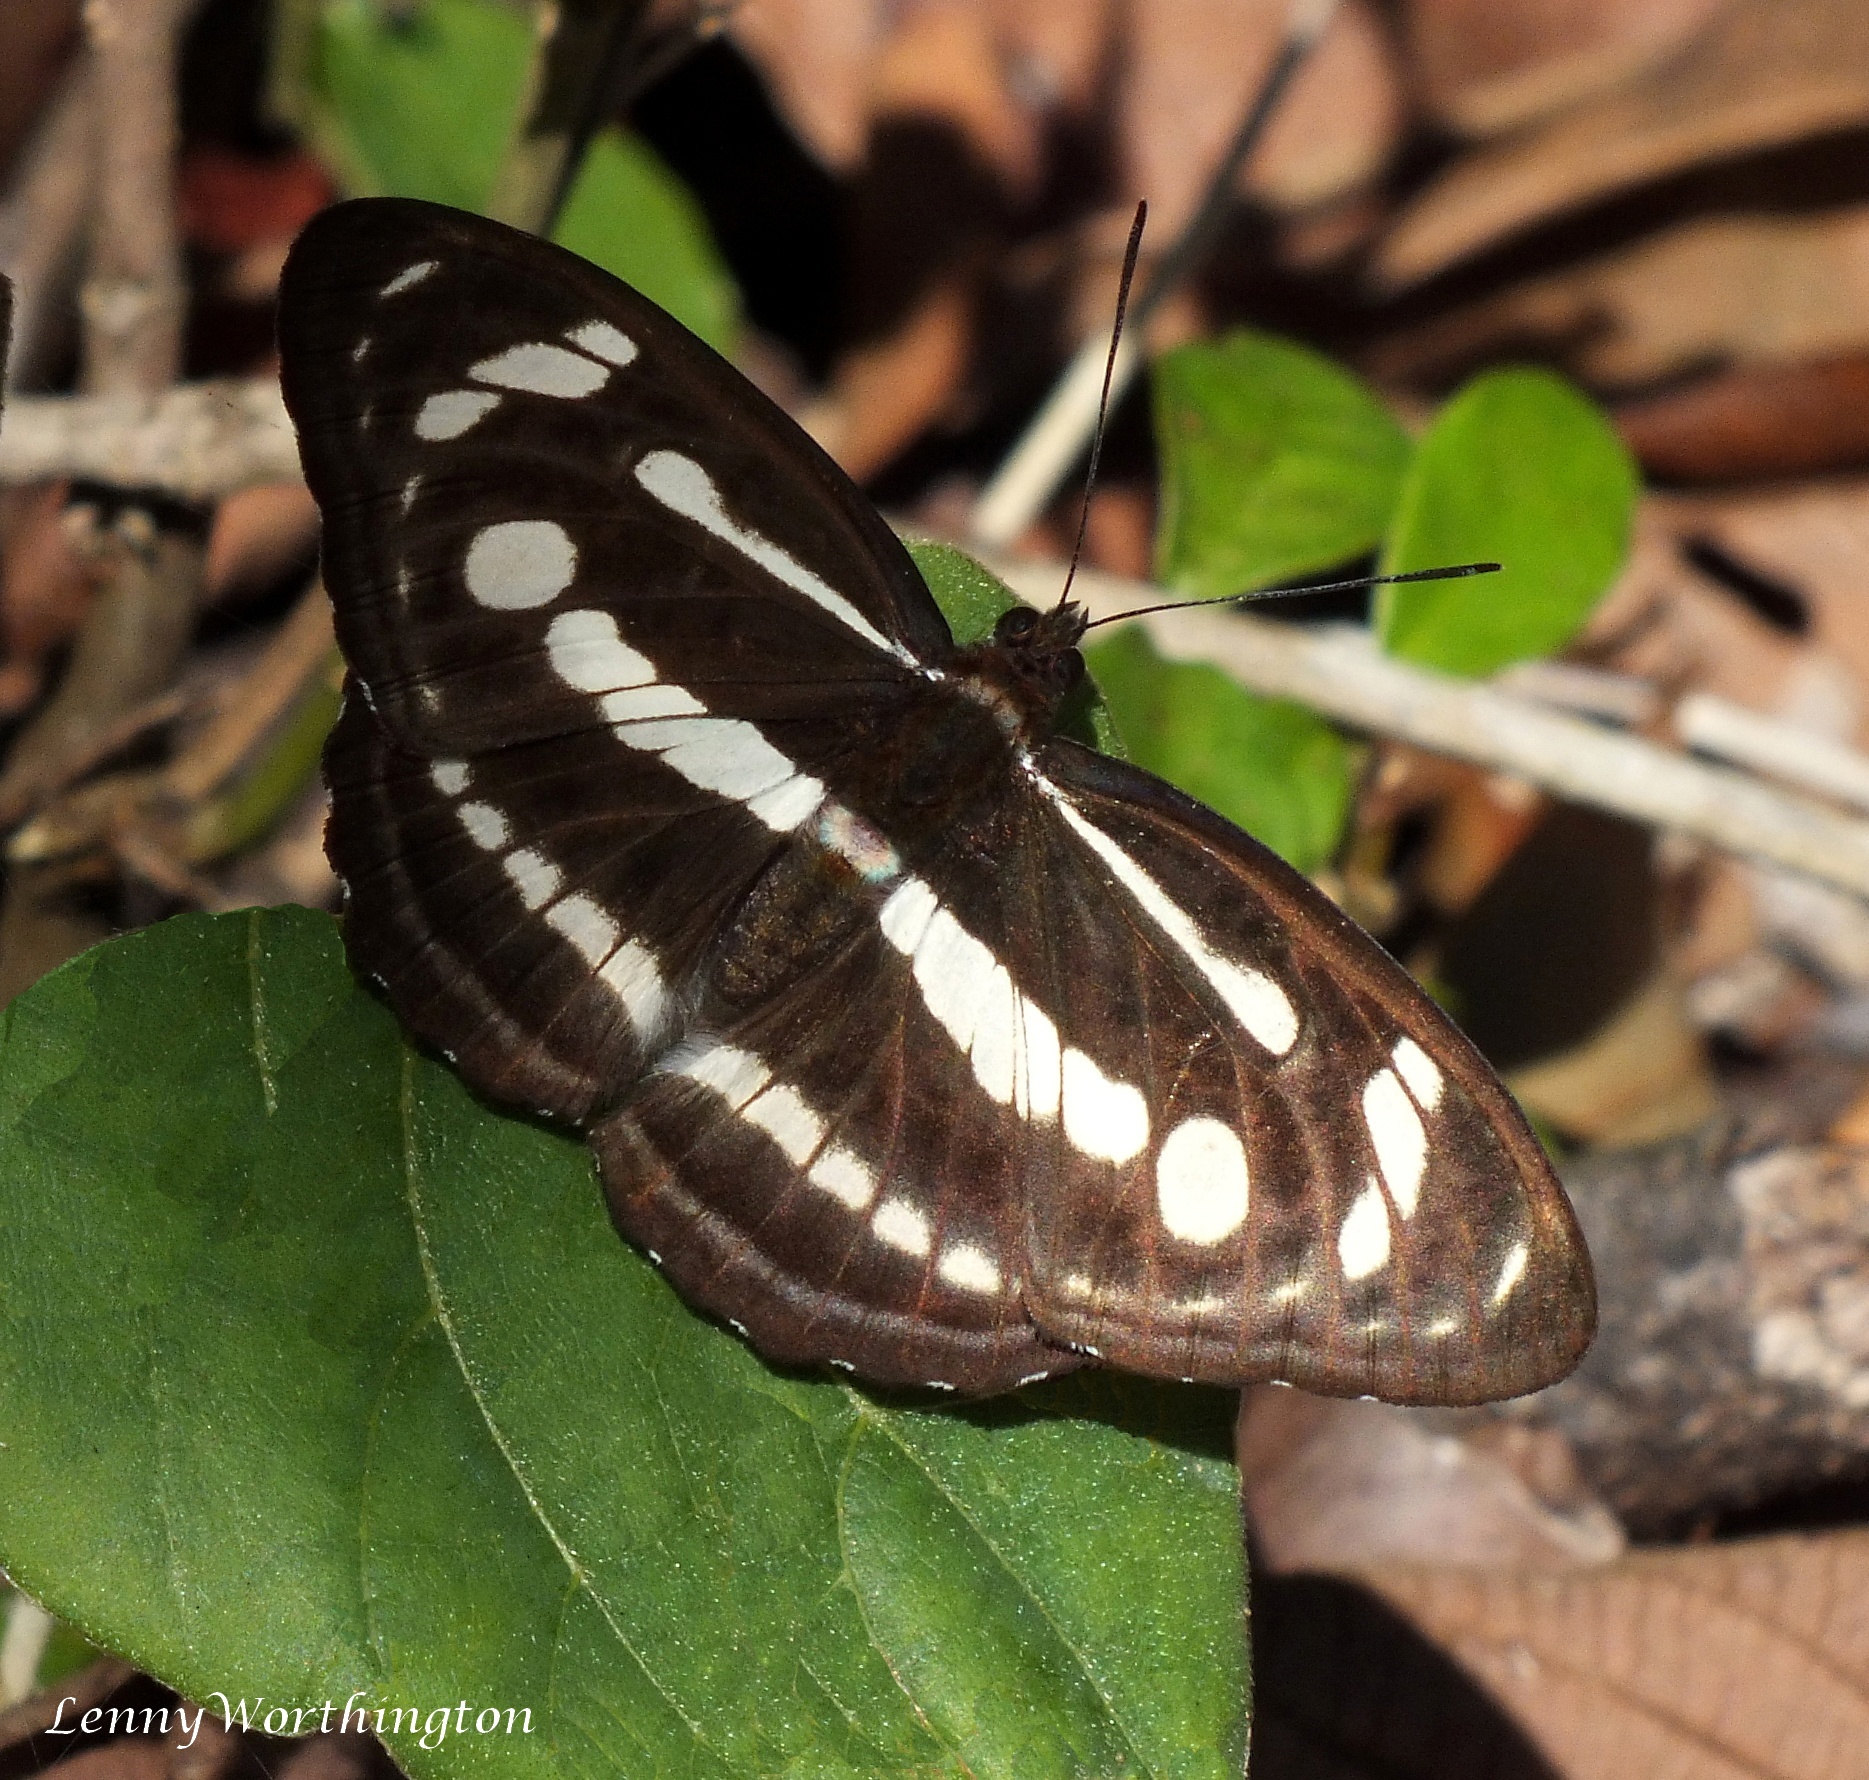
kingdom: Animalia
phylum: Arthropoda
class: Insecta
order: Lepidoptera
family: Nymphalidae
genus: Parathyma
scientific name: Parathyma pravara
